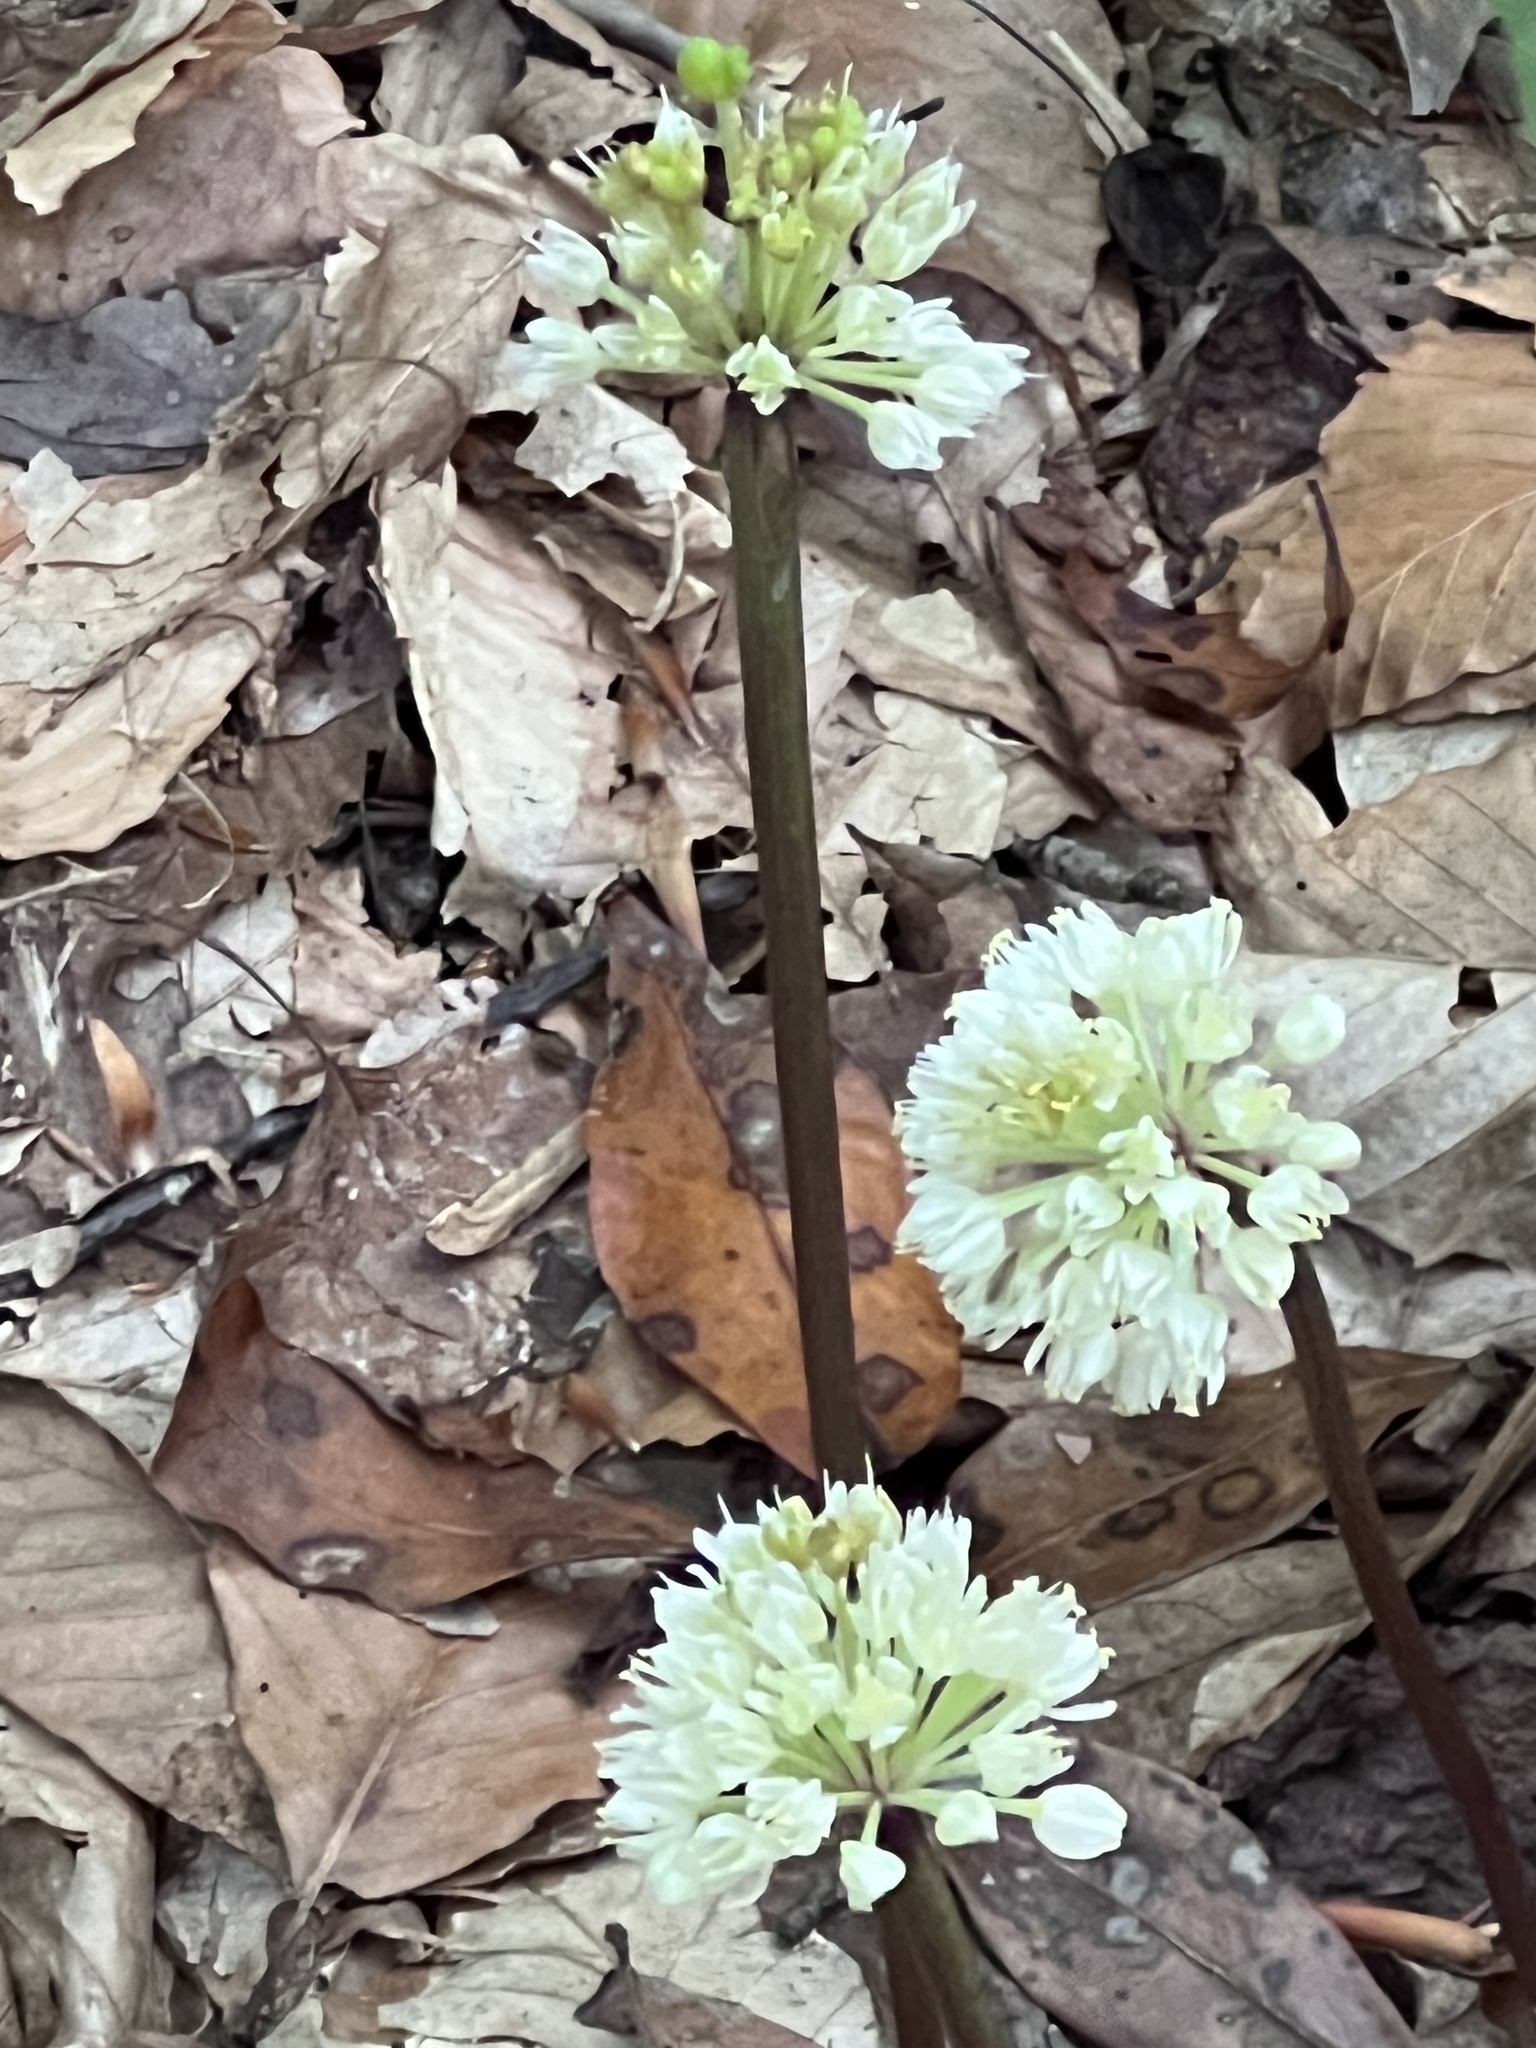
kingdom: Plantae
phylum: Tracheophyta
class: Liliopsida
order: Asparagales
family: Amaryllidaceae
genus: Allium
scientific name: Allium tricoccum
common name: Ramp
